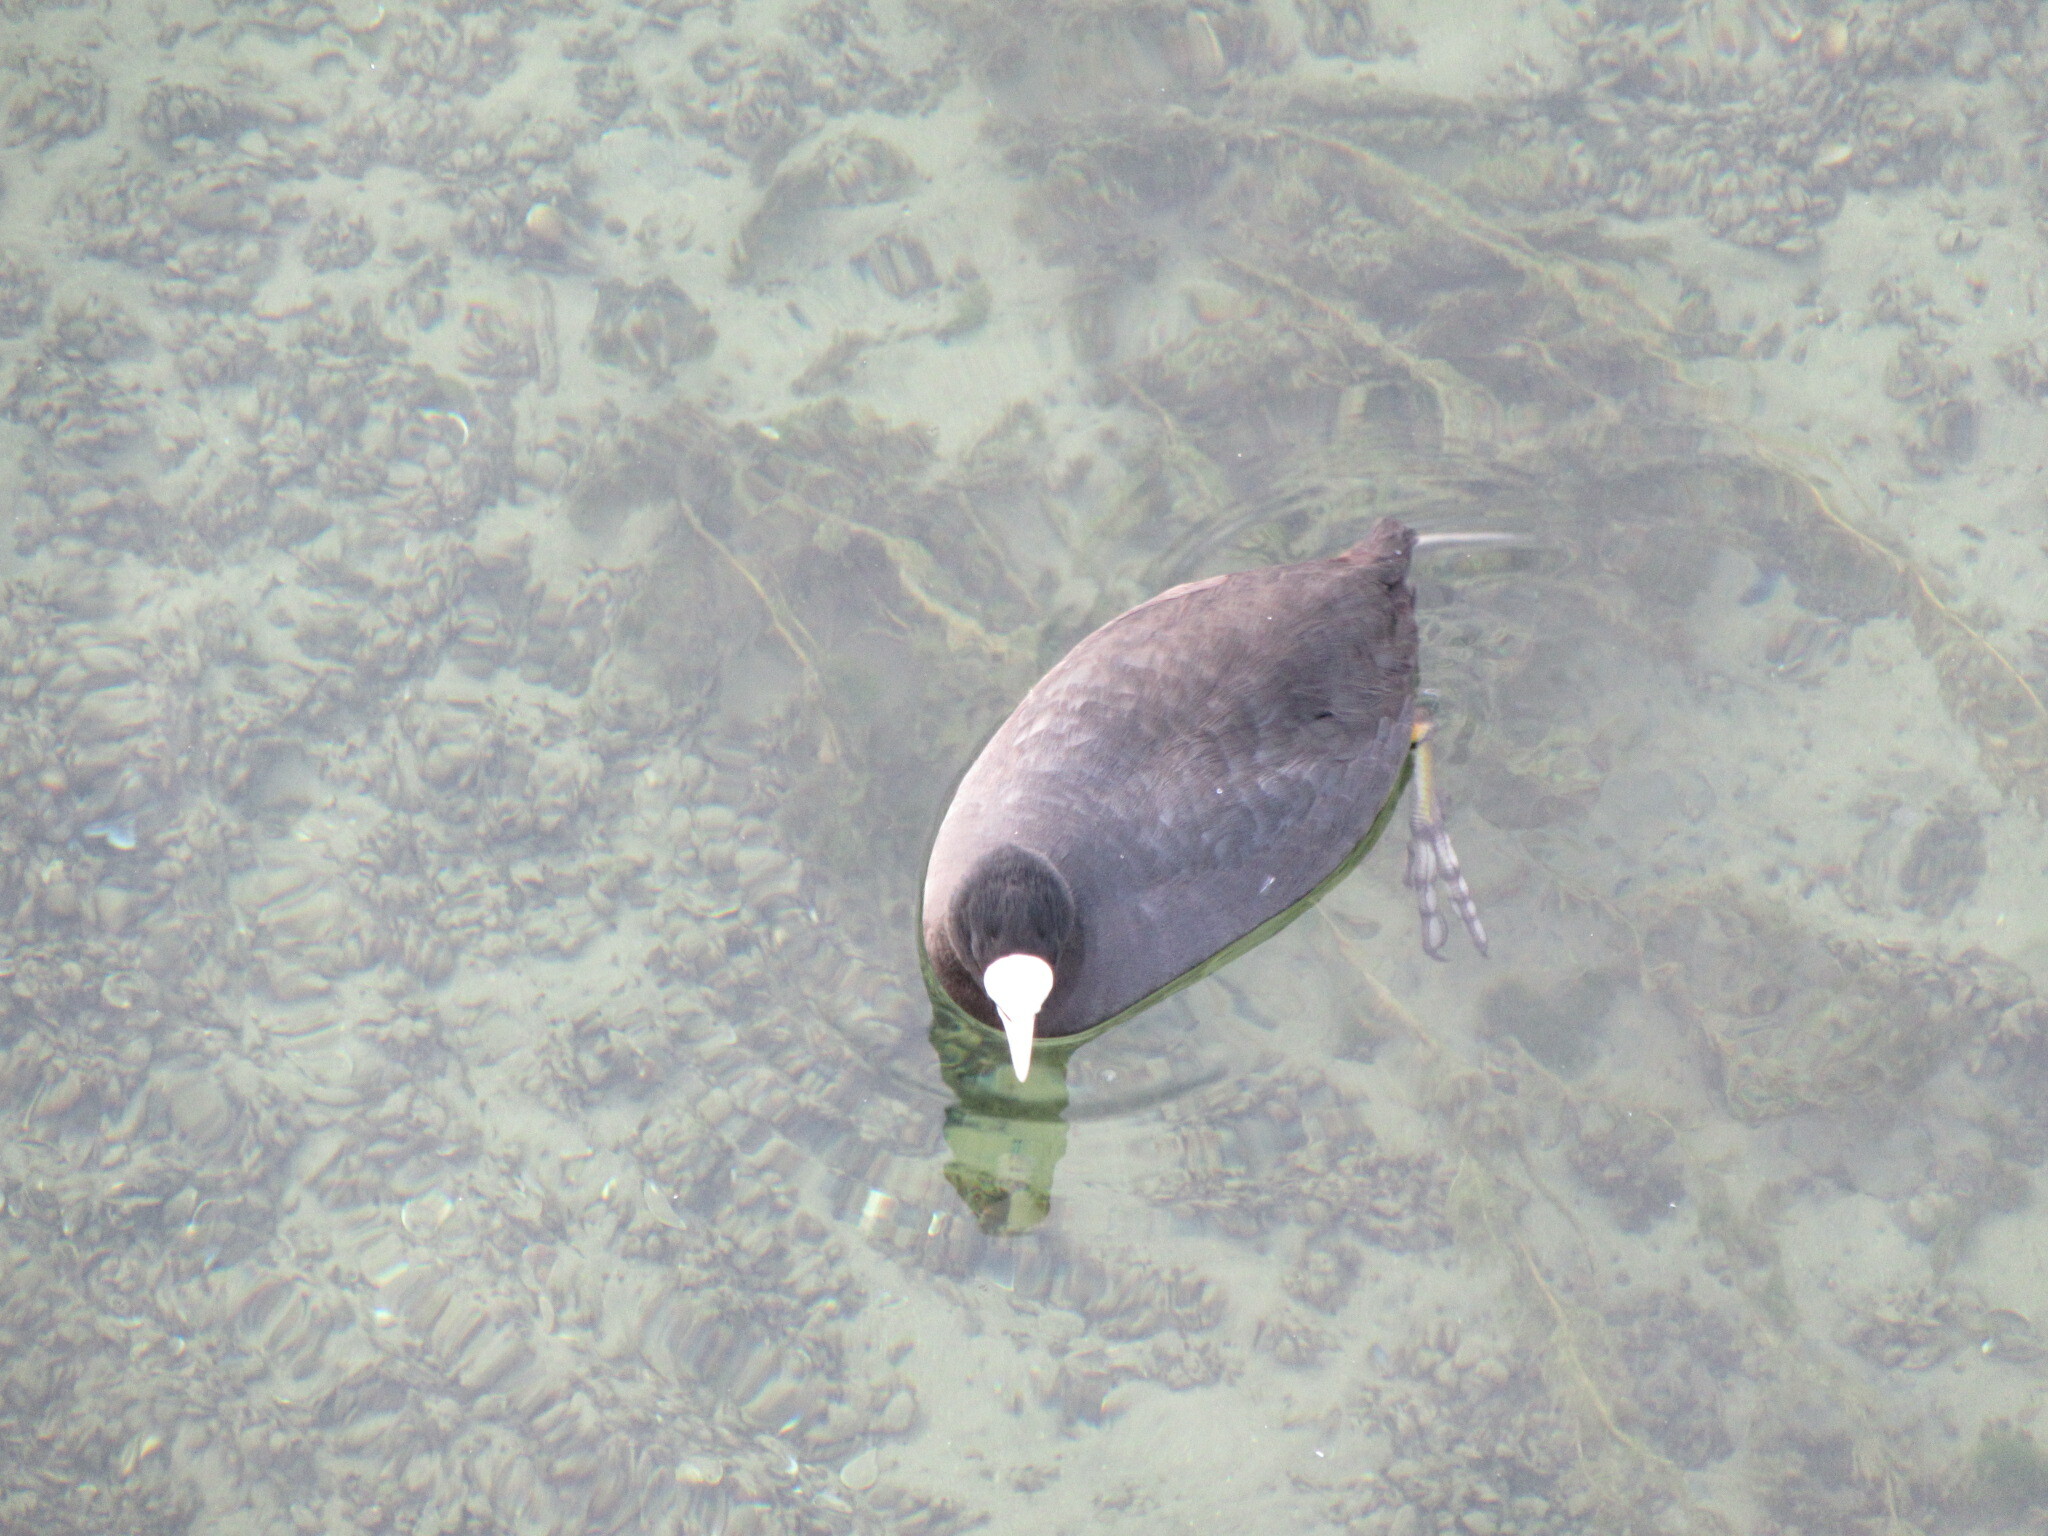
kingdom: Animalia
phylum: Chordata
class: Aves
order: Gruiformes
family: Rallidae
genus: Fulica
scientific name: Fulica atra
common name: Eurasian coot
